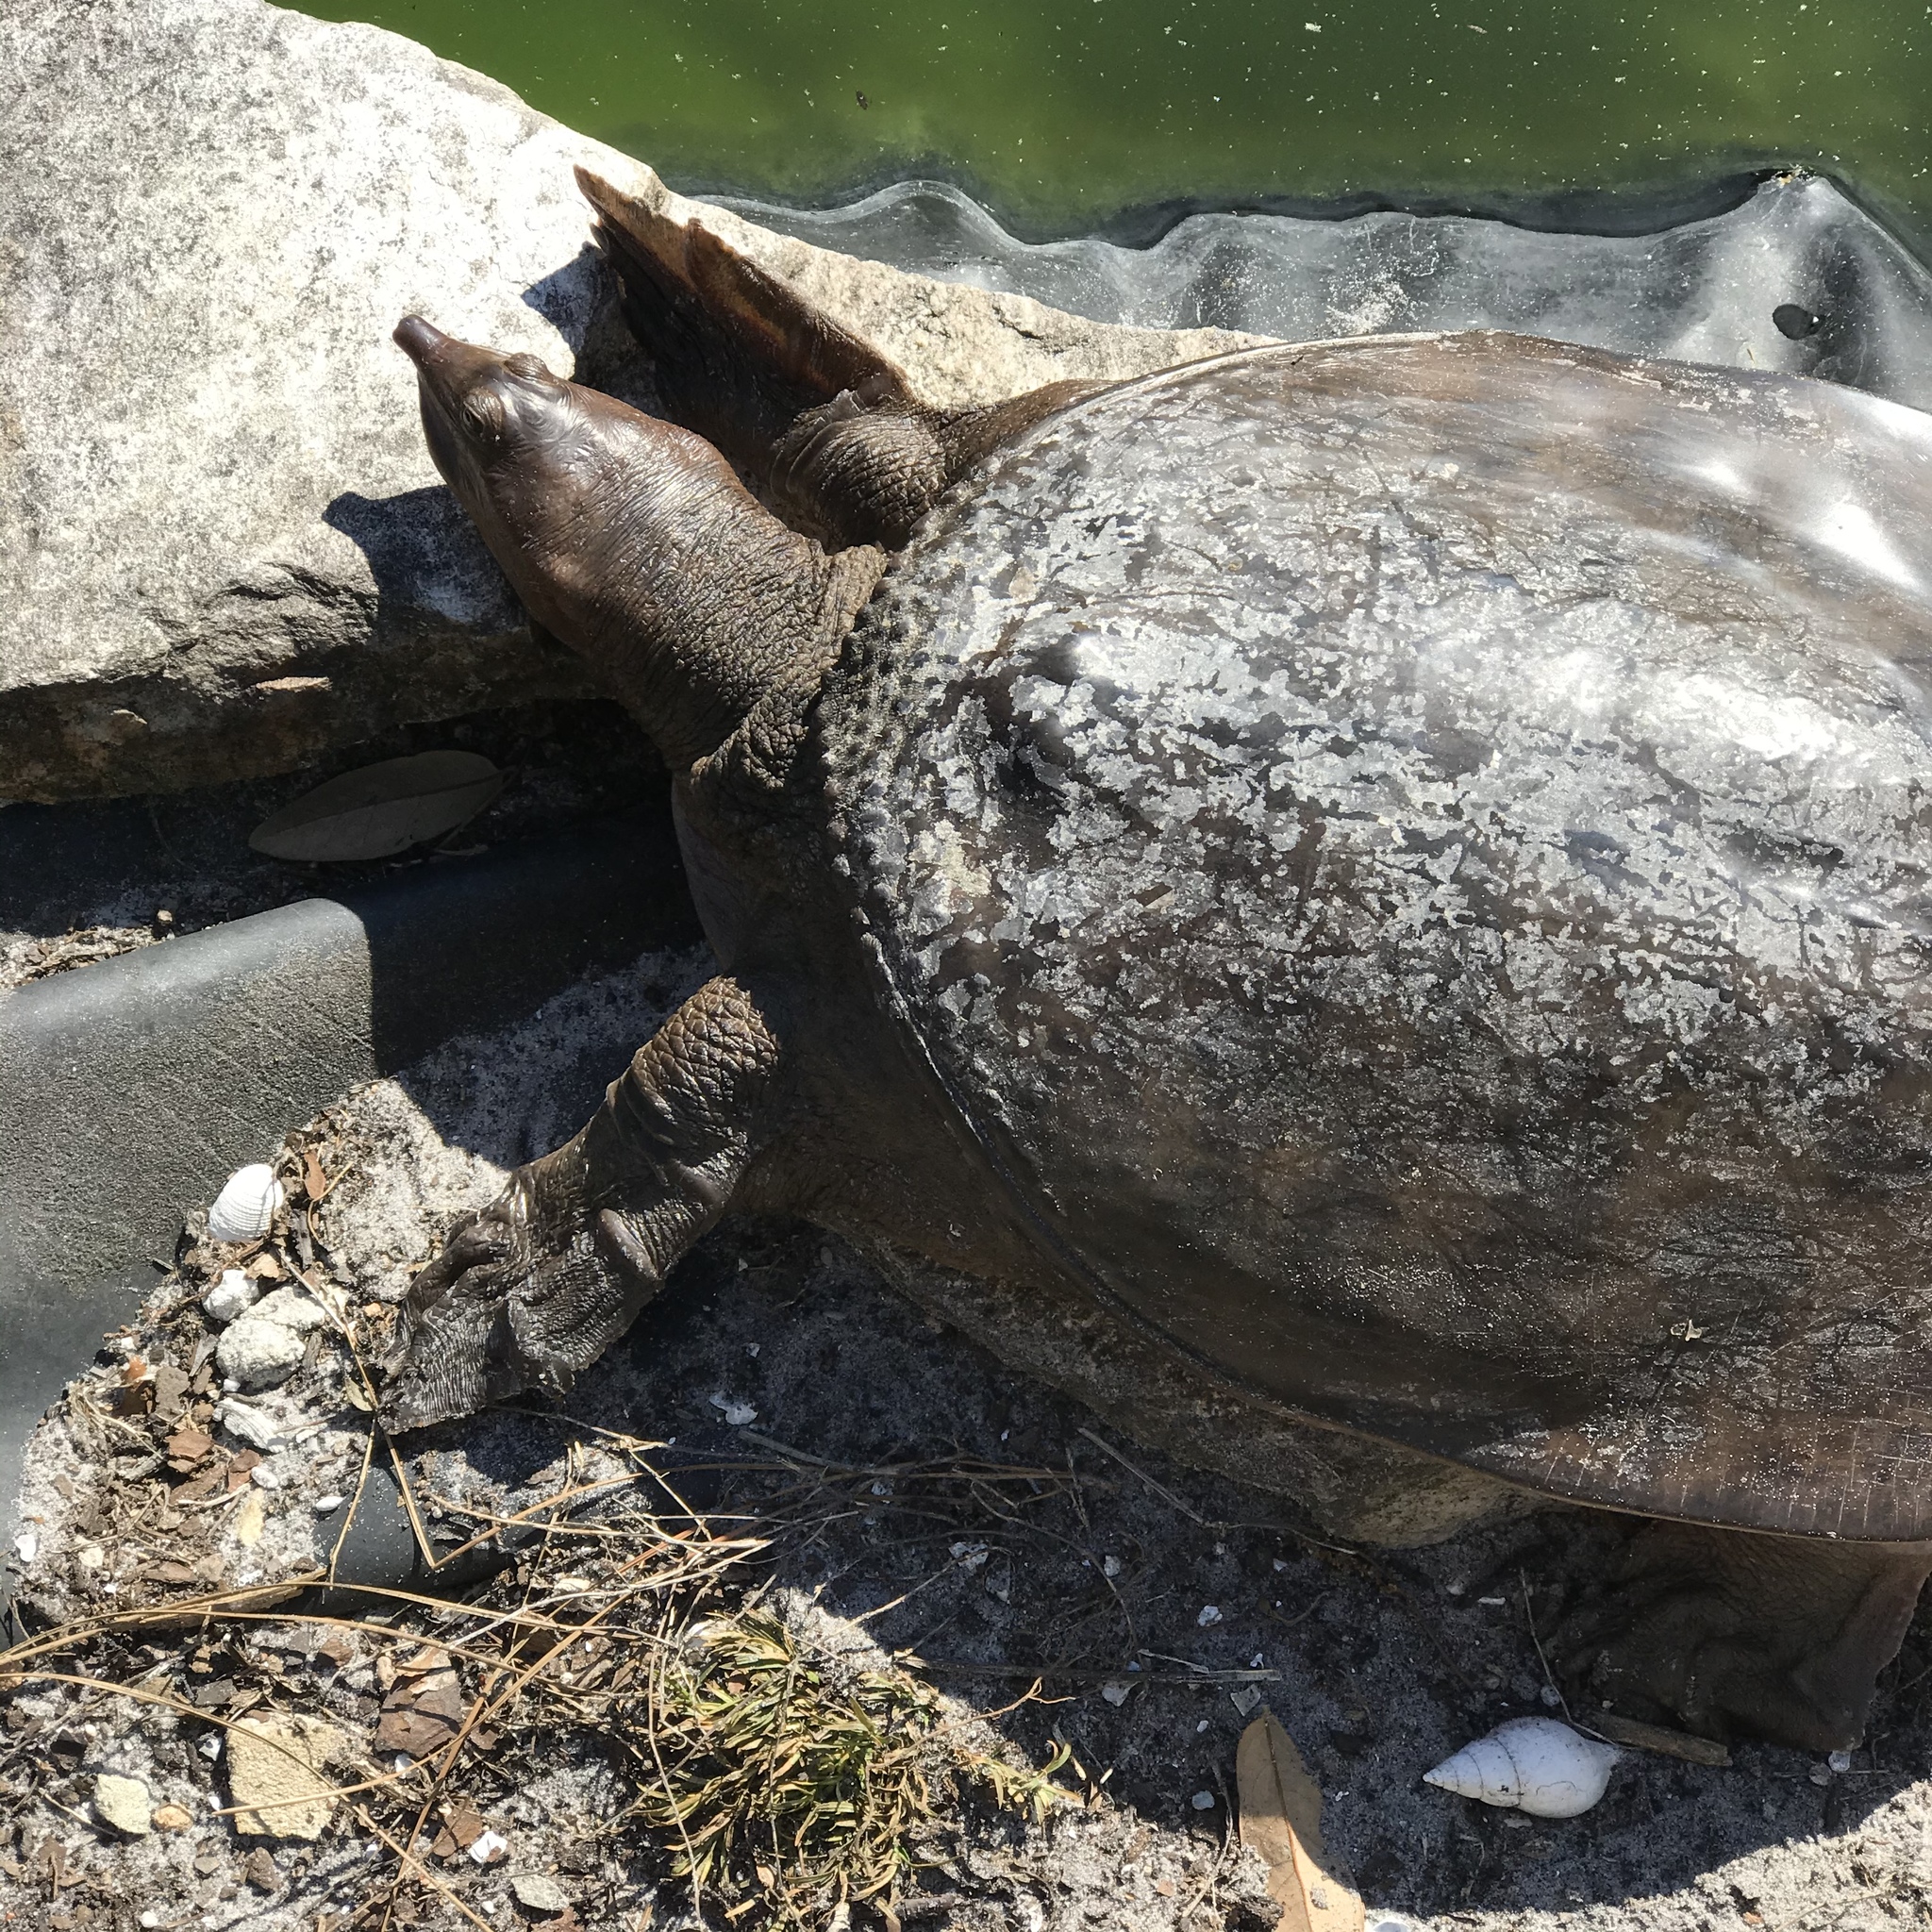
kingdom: Animalia
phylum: Chordata
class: Testudines
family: Trionychidae
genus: Apalone
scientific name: Apalone ferox
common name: Florida softshell turtle
